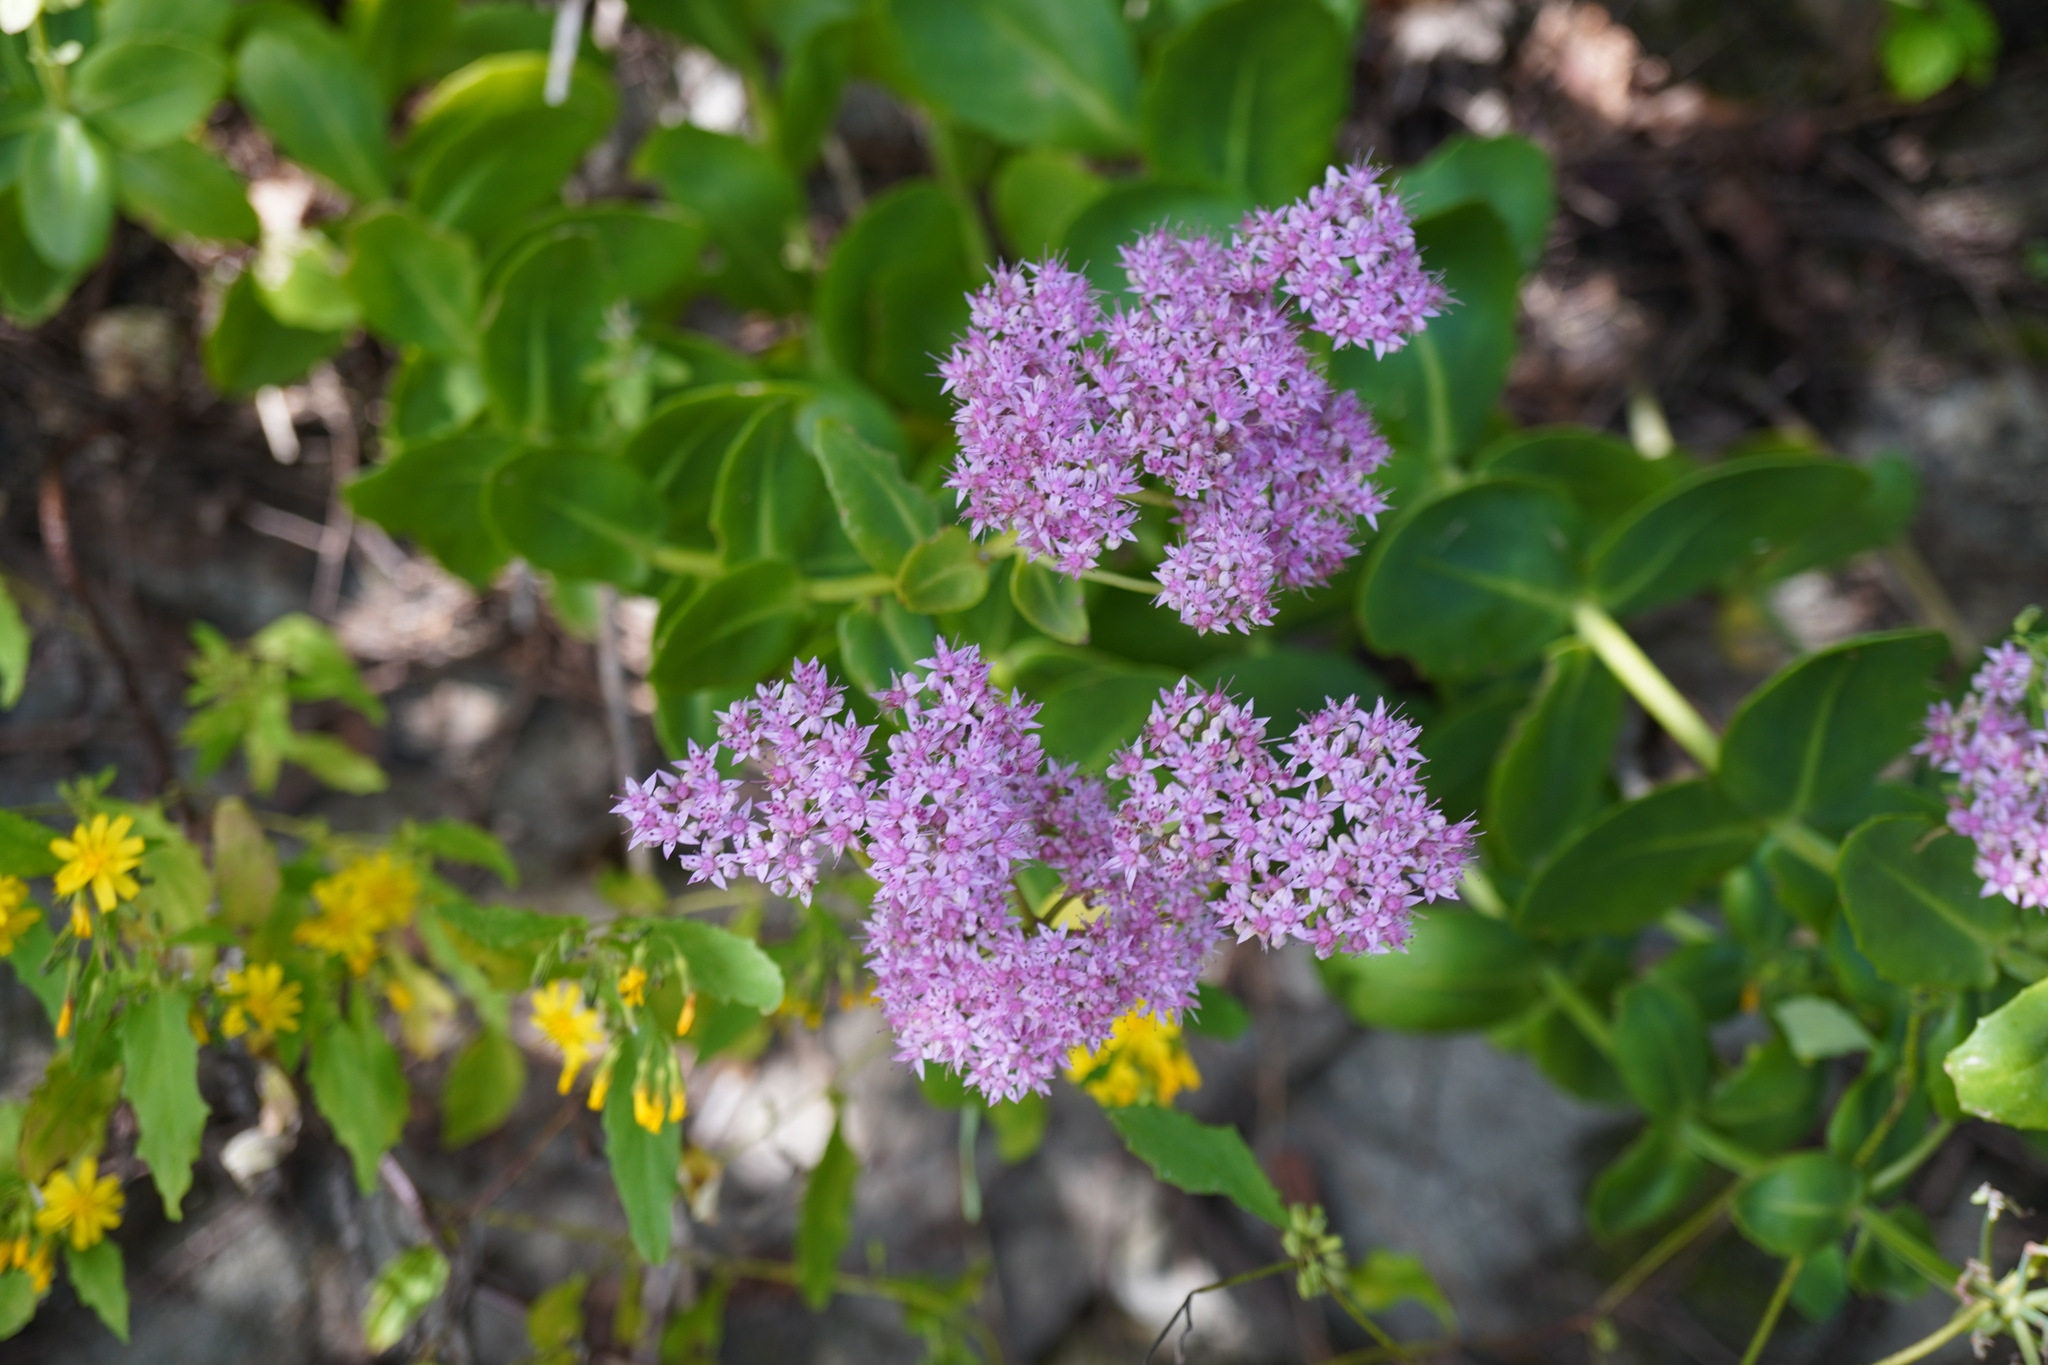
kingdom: Plantae
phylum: Tracheophyta
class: Magnoliopsida
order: Saxifragales
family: Crassulaceae
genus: Hylotelephium
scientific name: Hylotelephium spectabile
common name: Showy stonecrop
